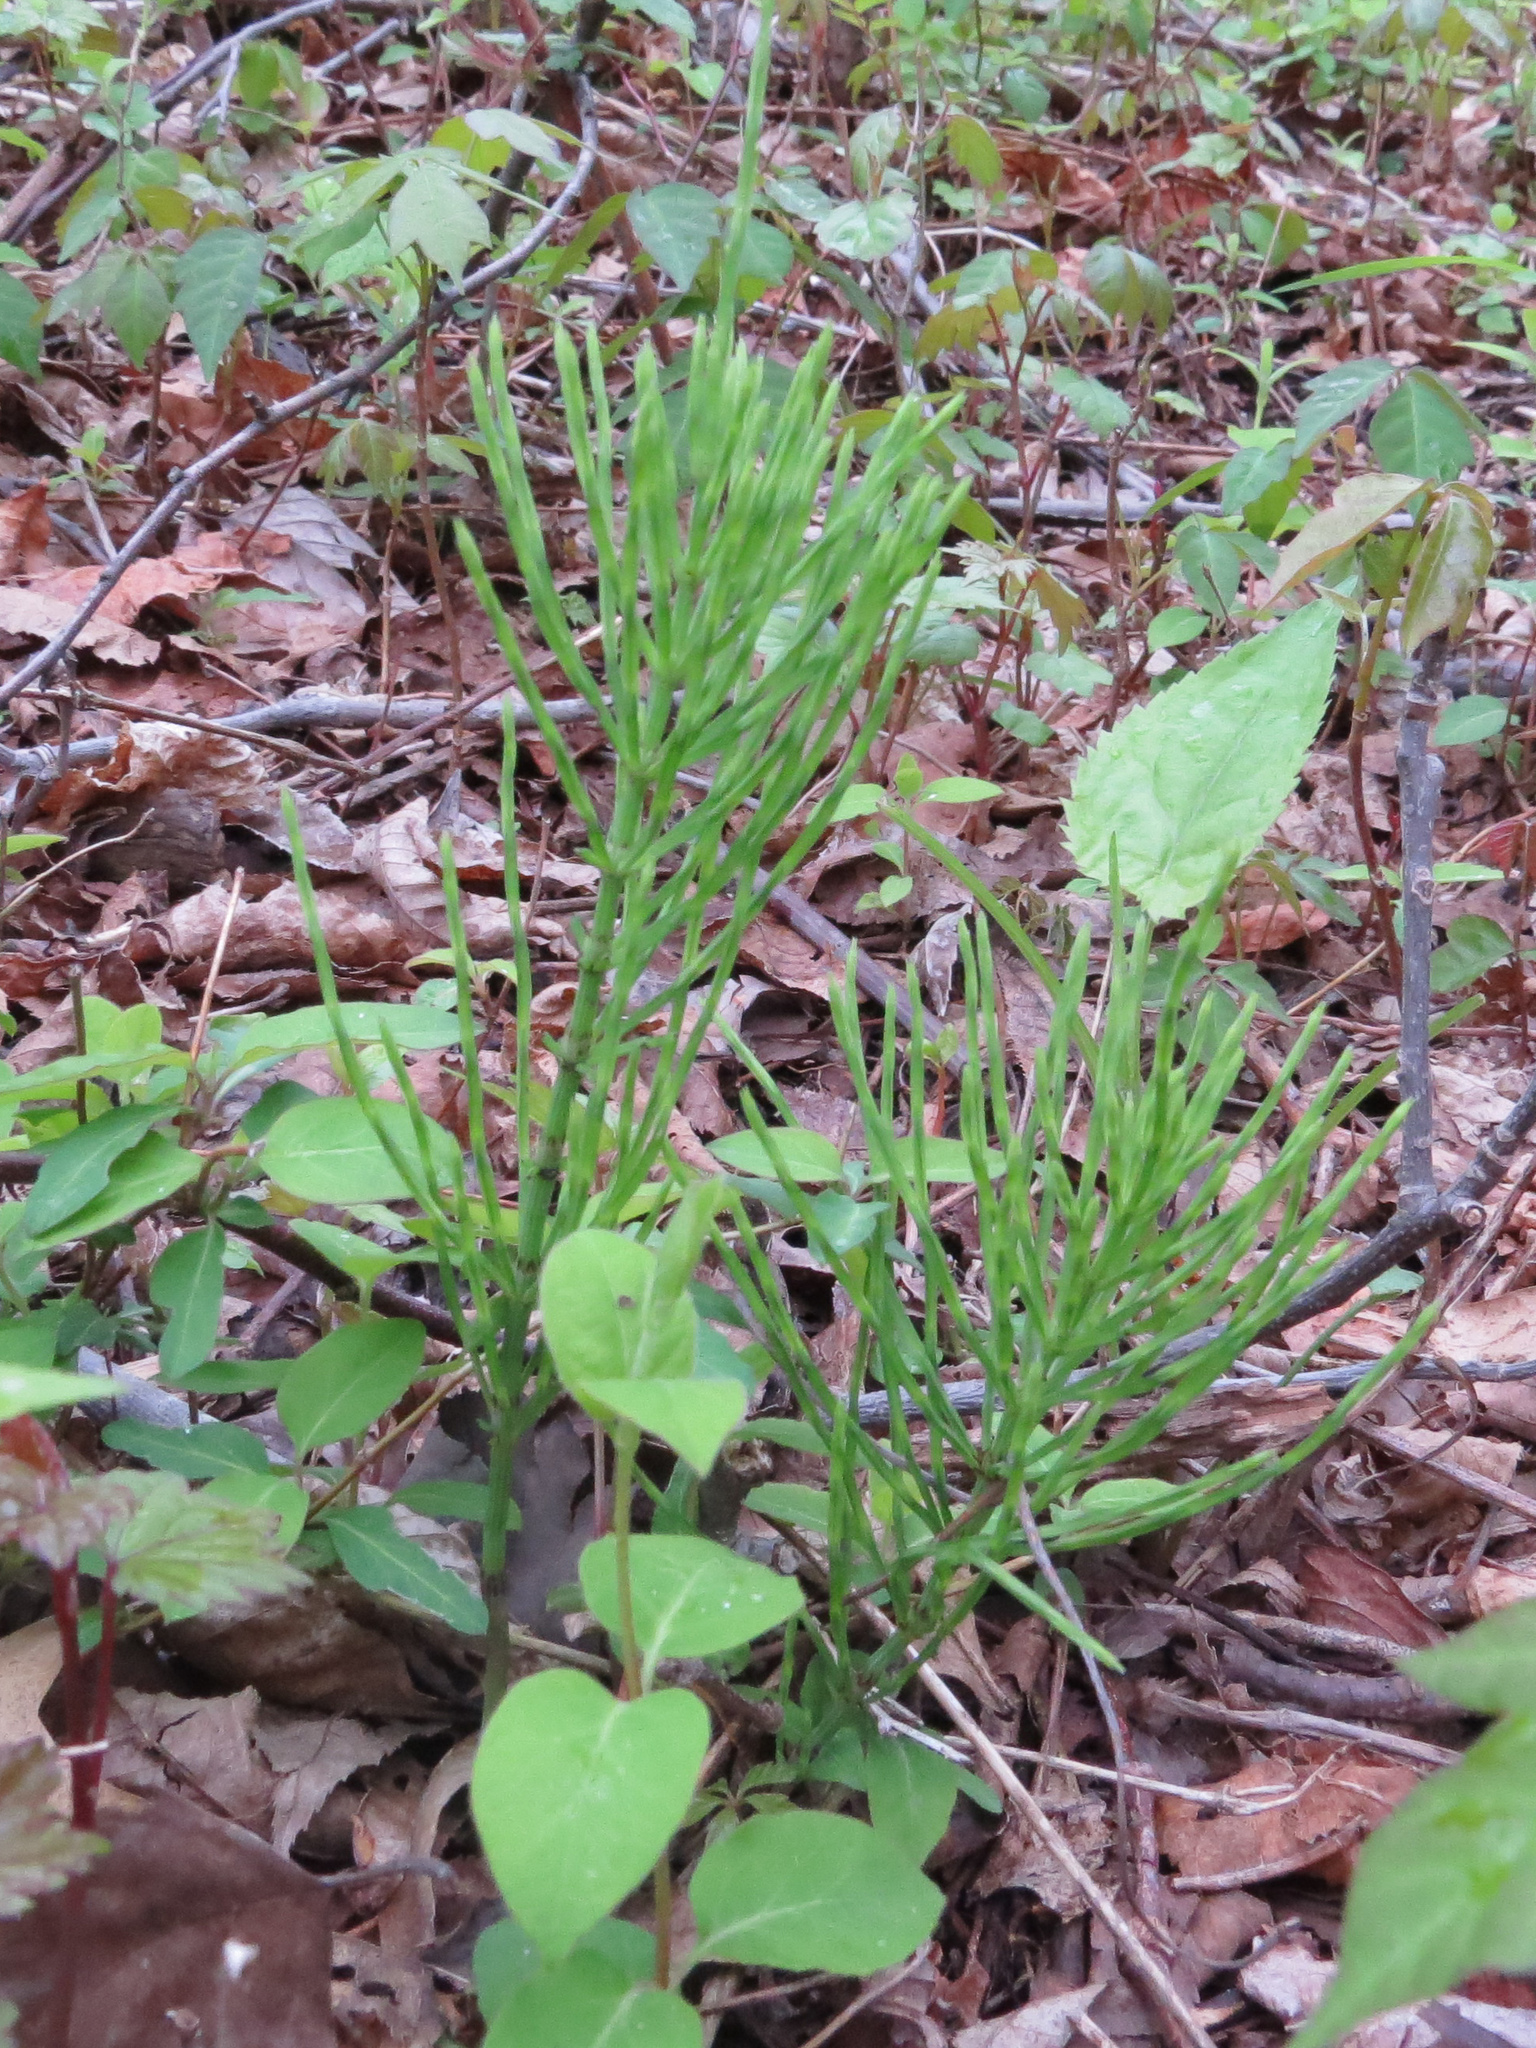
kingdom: Plantae
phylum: Tracheophyta
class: Polypodiopsida
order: Equisetales
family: Equisetaceae
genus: Equisetum
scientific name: Equisetum arvense
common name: Field horsetail
